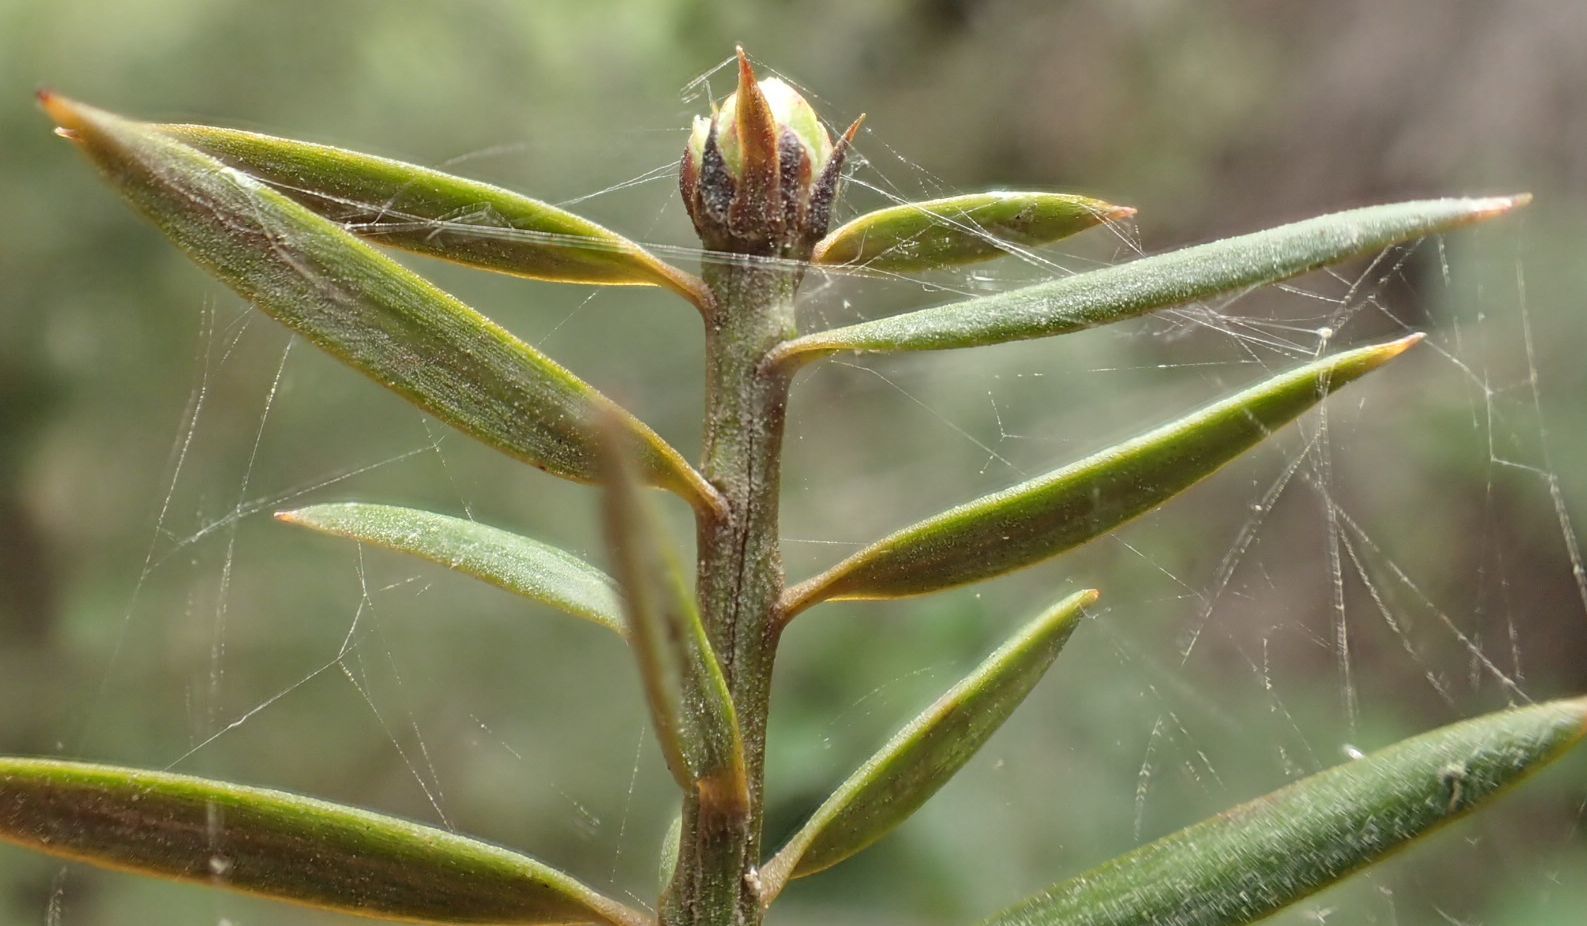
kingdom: Plantae
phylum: Tracheophyta
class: Pinopsida
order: Pinales
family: Podocarpaceae
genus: Podocarpus
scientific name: Podocarpus laetus
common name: Hall's totara
